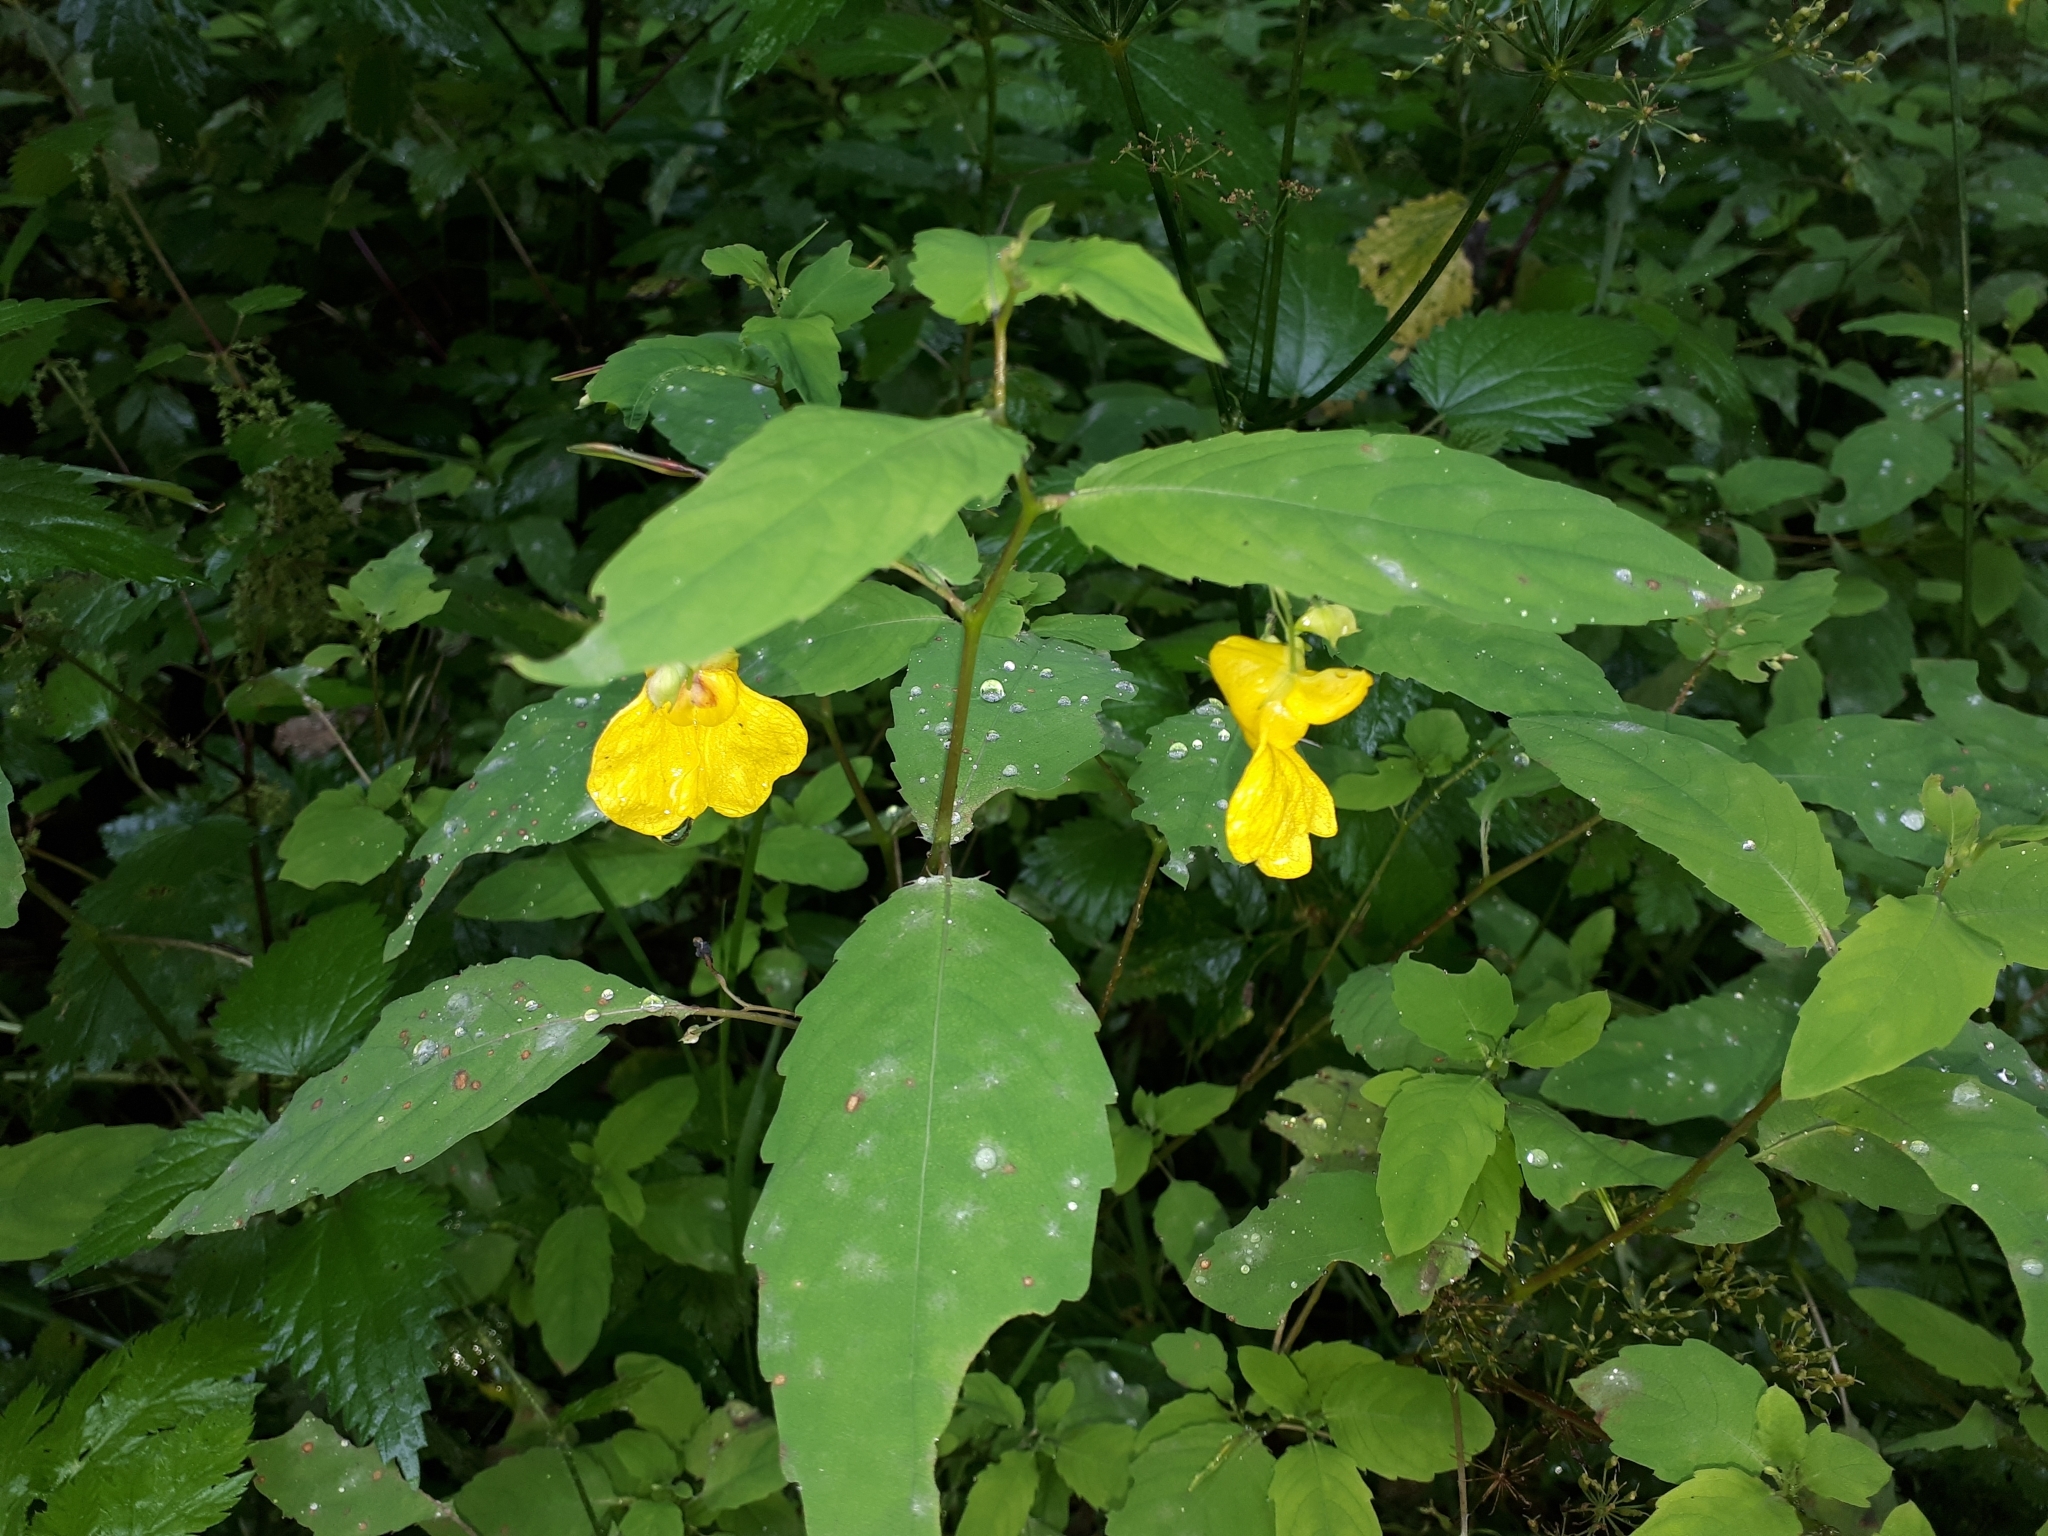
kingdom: Plantae
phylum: Tracheophyta
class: Magnoliopsida
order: Ericales
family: Balsaminaceae
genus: Impatiens
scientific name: Impatiens noli-tangere
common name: Touch-me-not balsam
